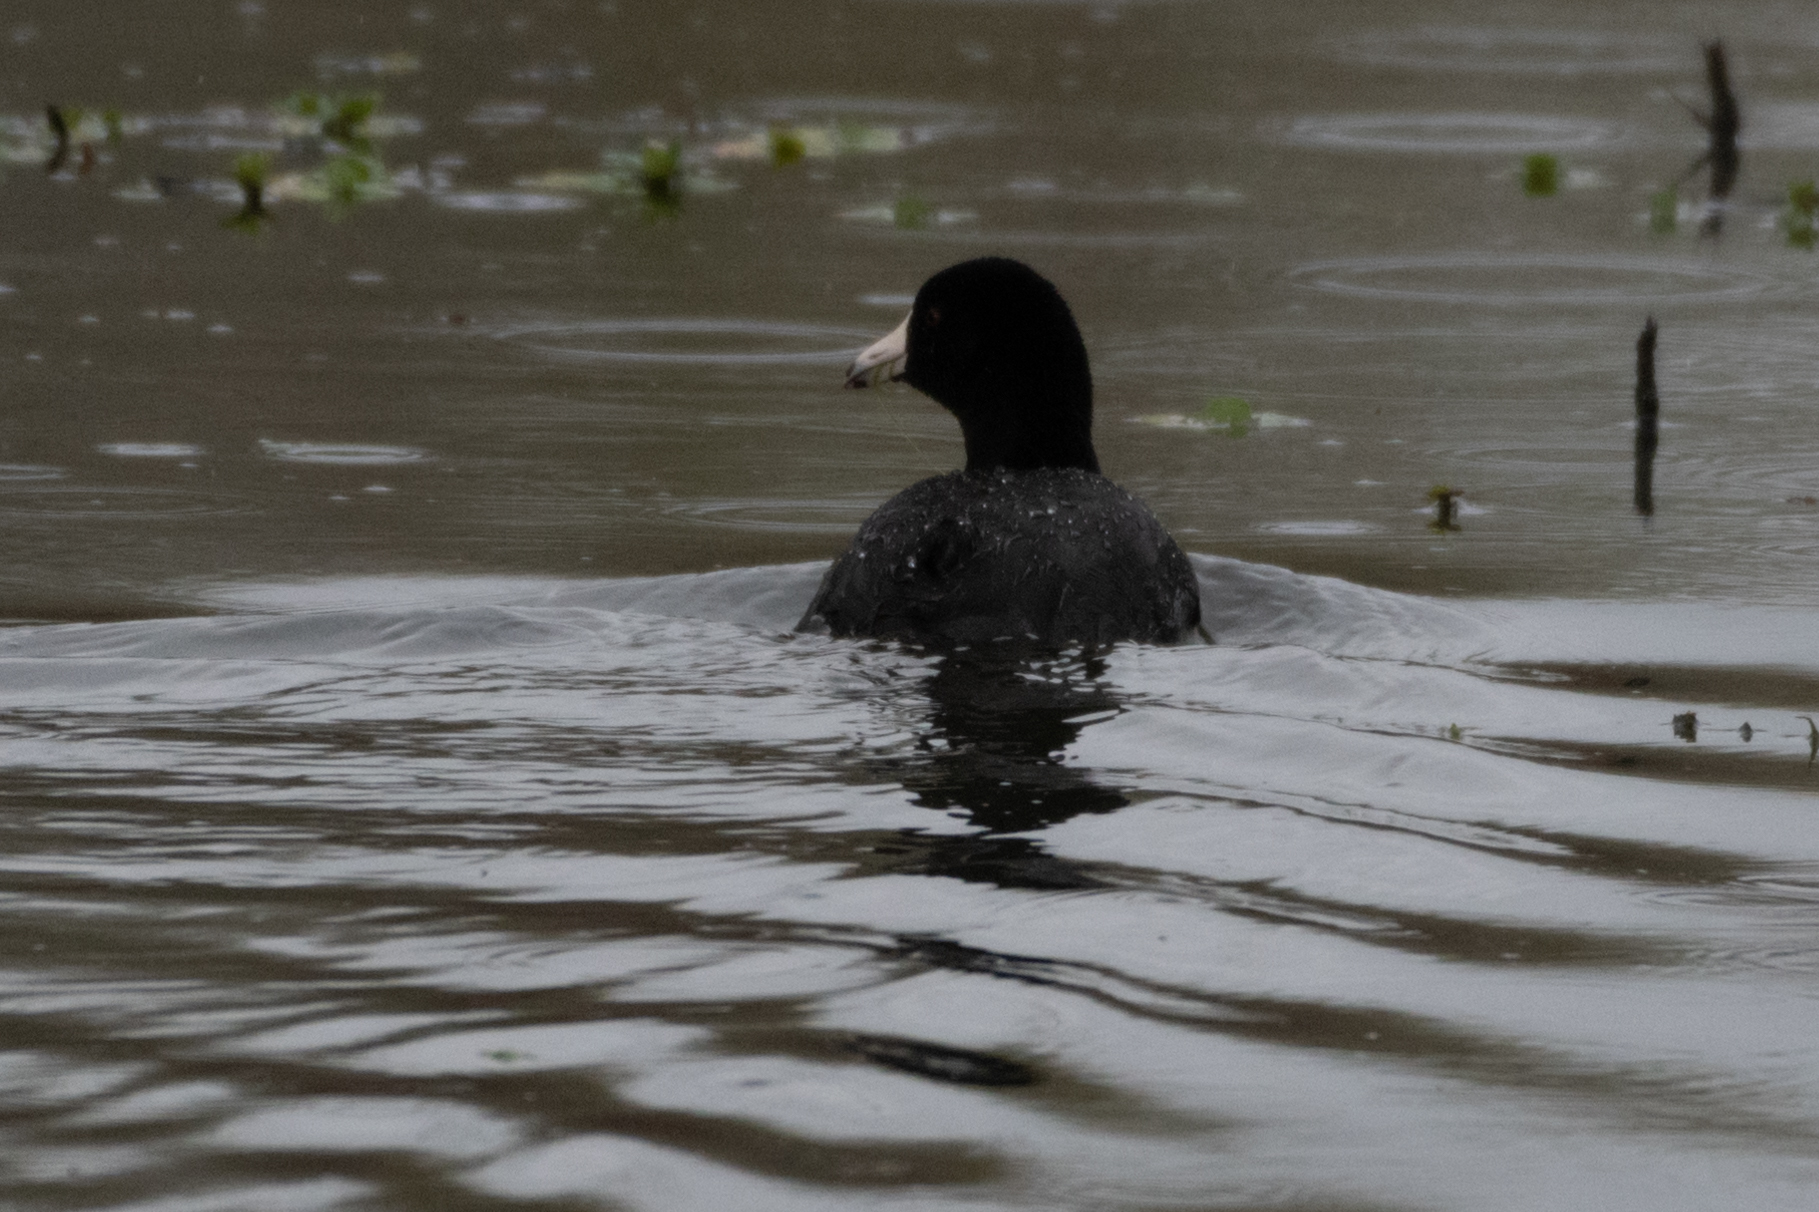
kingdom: Animalia
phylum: Chordata
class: Aves
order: Gruiformes
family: Rallidae
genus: Fulica
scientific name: Fulica americana
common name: American coot
